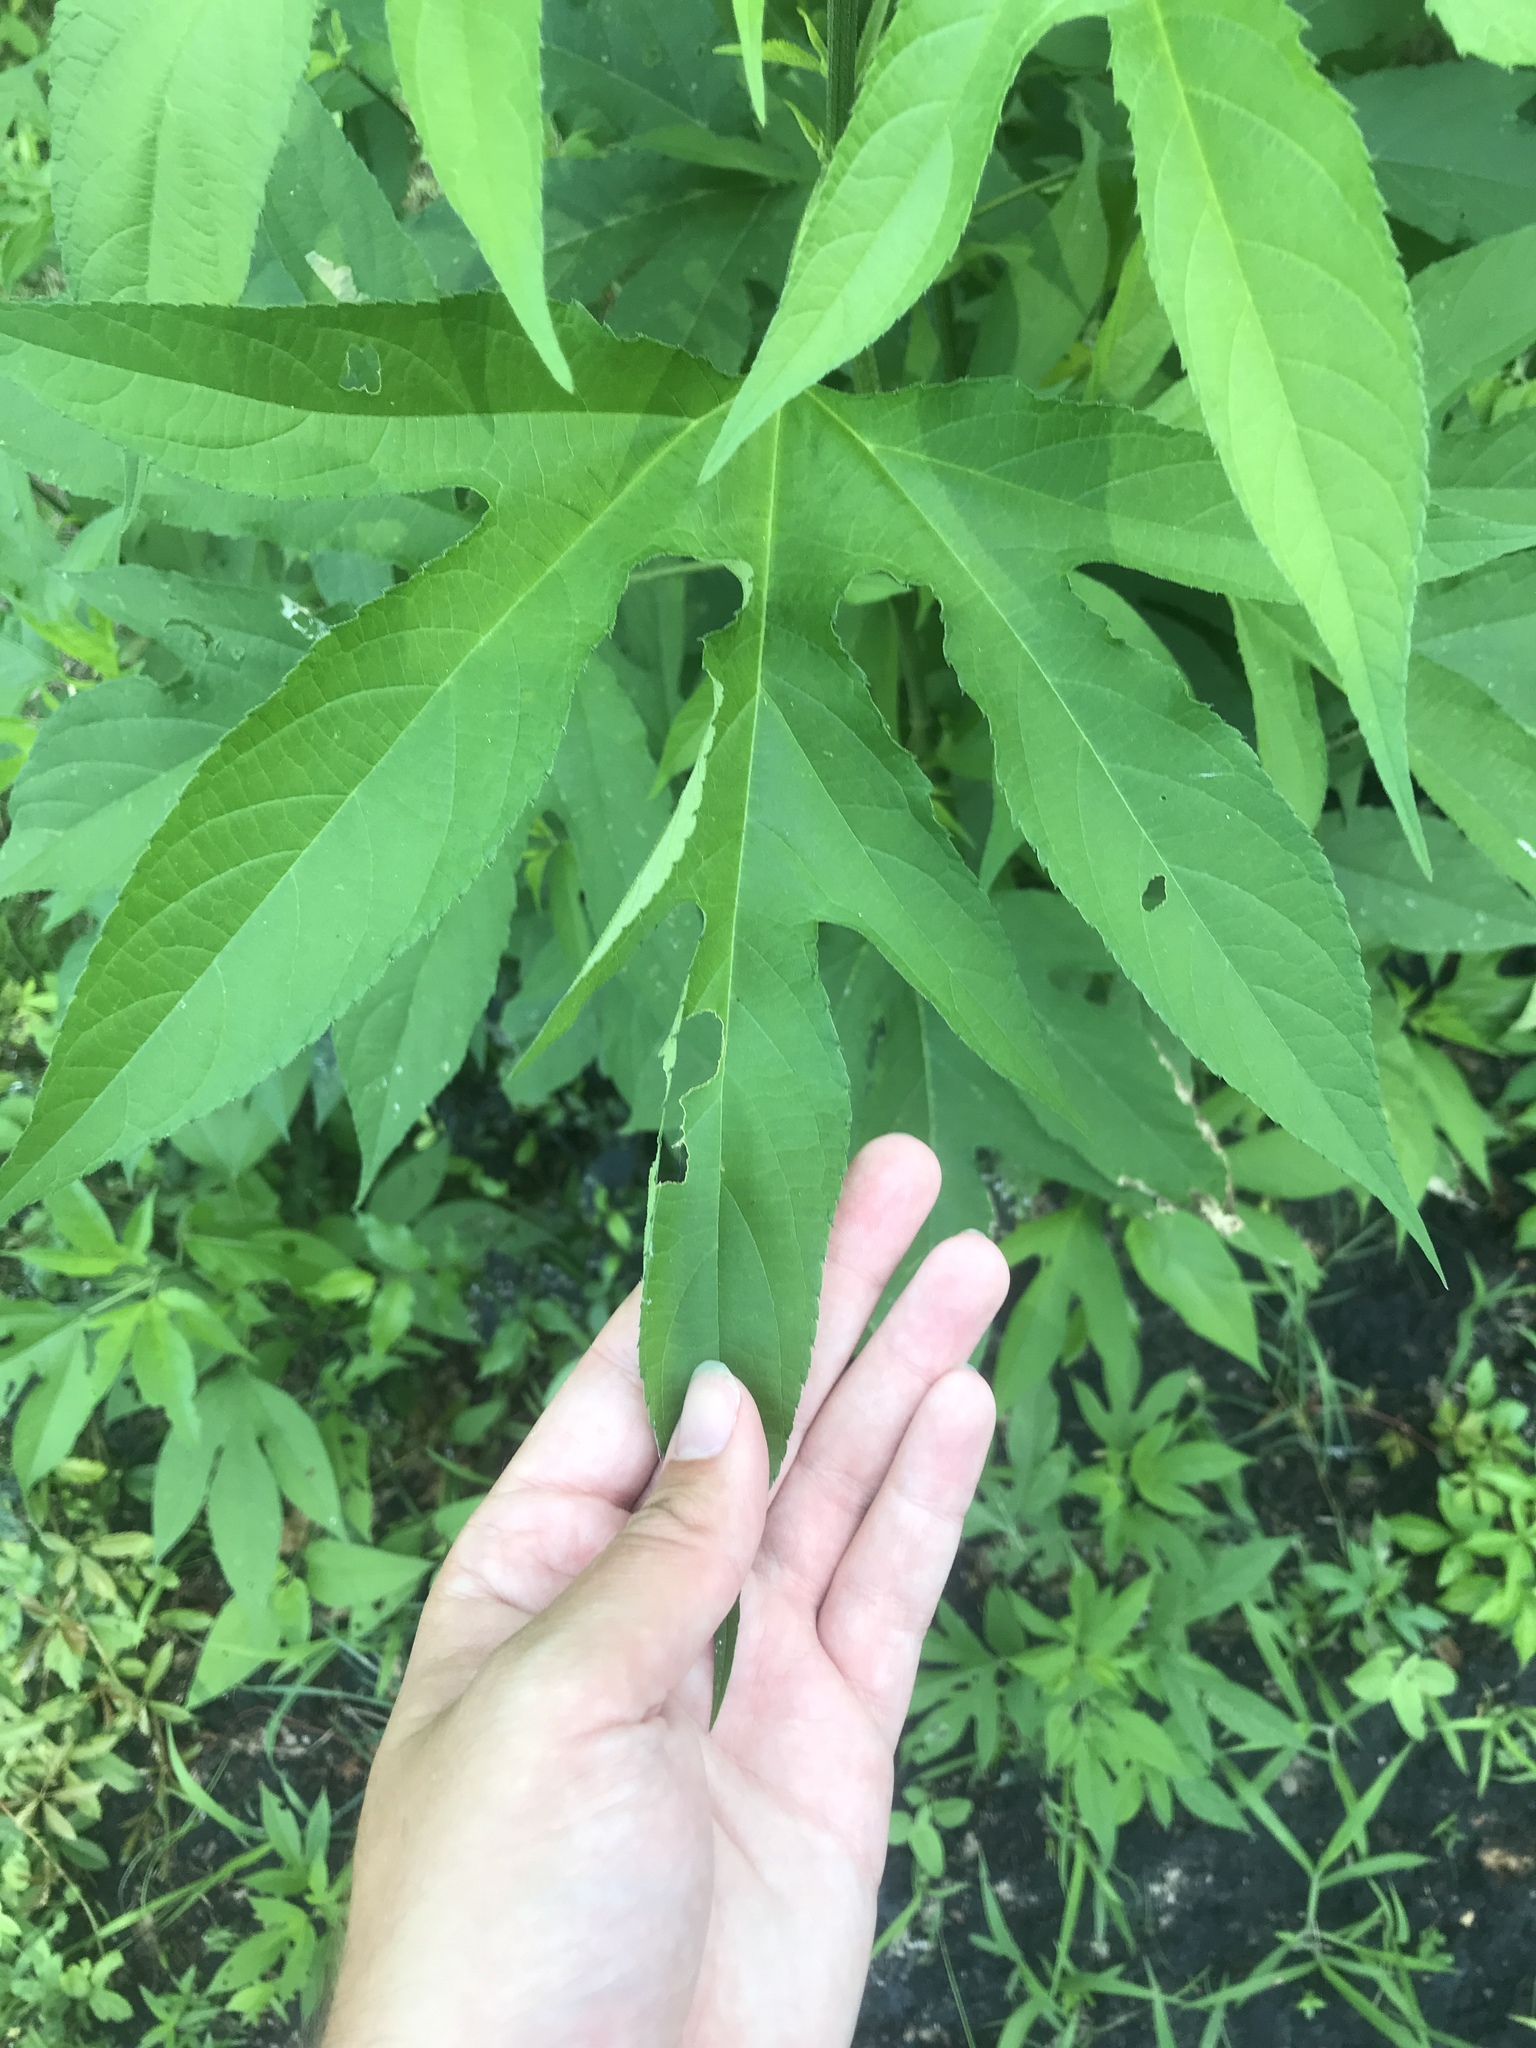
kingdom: Plantae
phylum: Tracheophyta
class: Magnoliopsida
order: Asterales
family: Asteraceae
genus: Ambrosia
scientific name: Ambrosia trifida
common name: Giant ragweed
